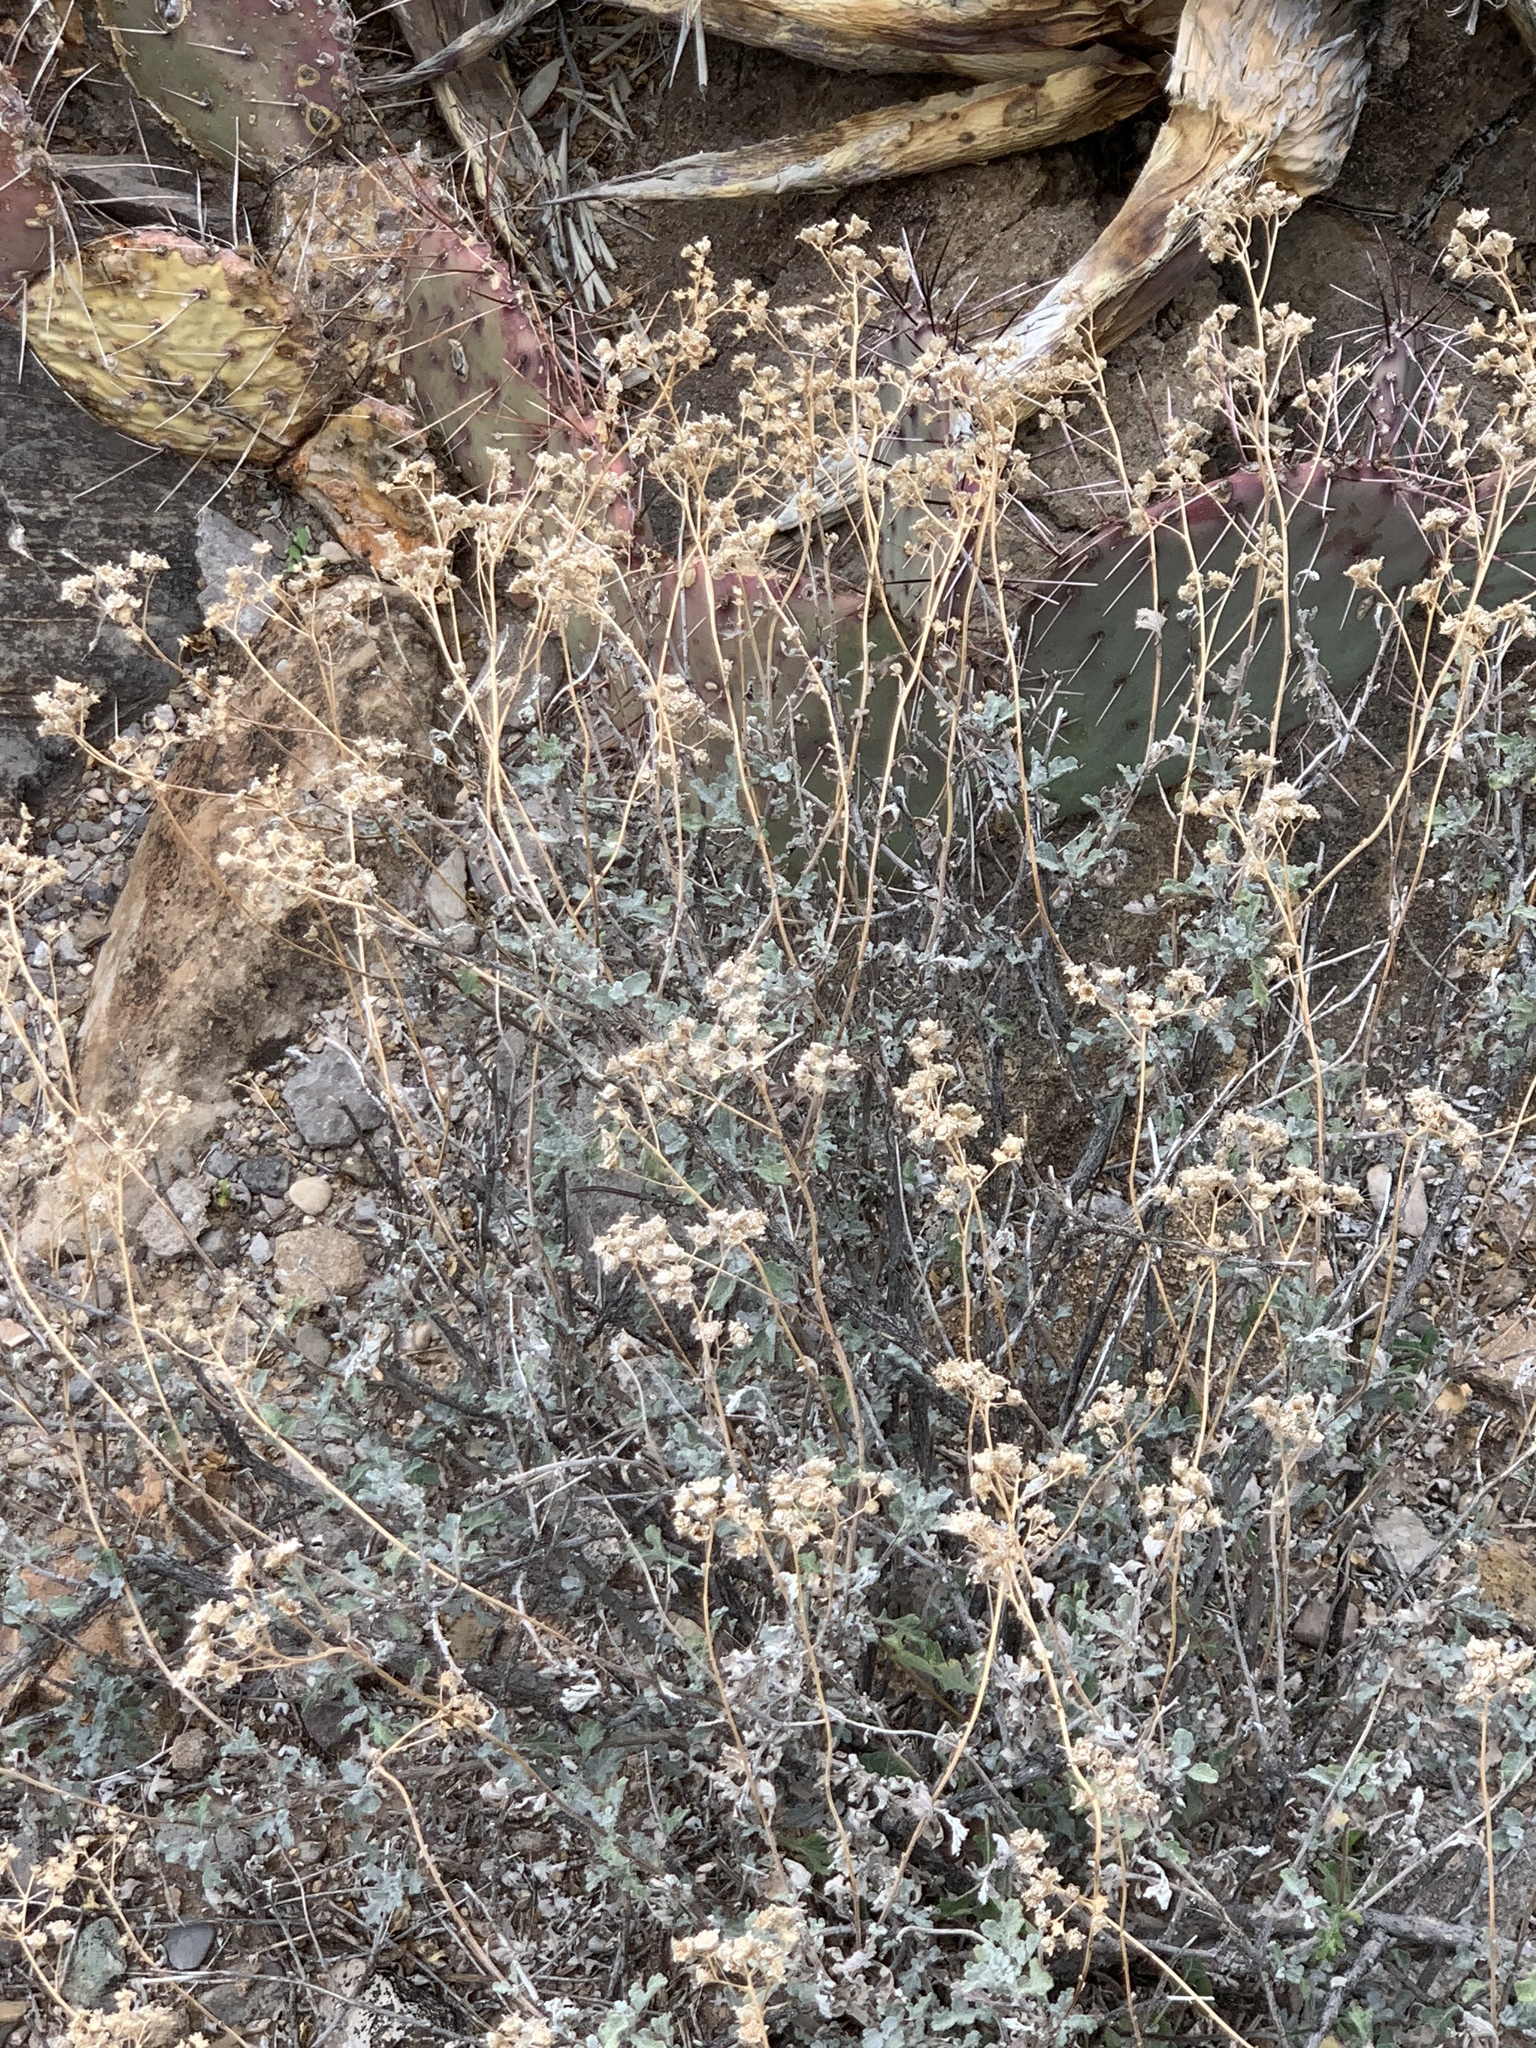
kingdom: Plantae
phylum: Tracheophyta
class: Magnoliopsida
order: Asterales
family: Asteraceae
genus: Parthenium
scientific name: Parthenium incanum
